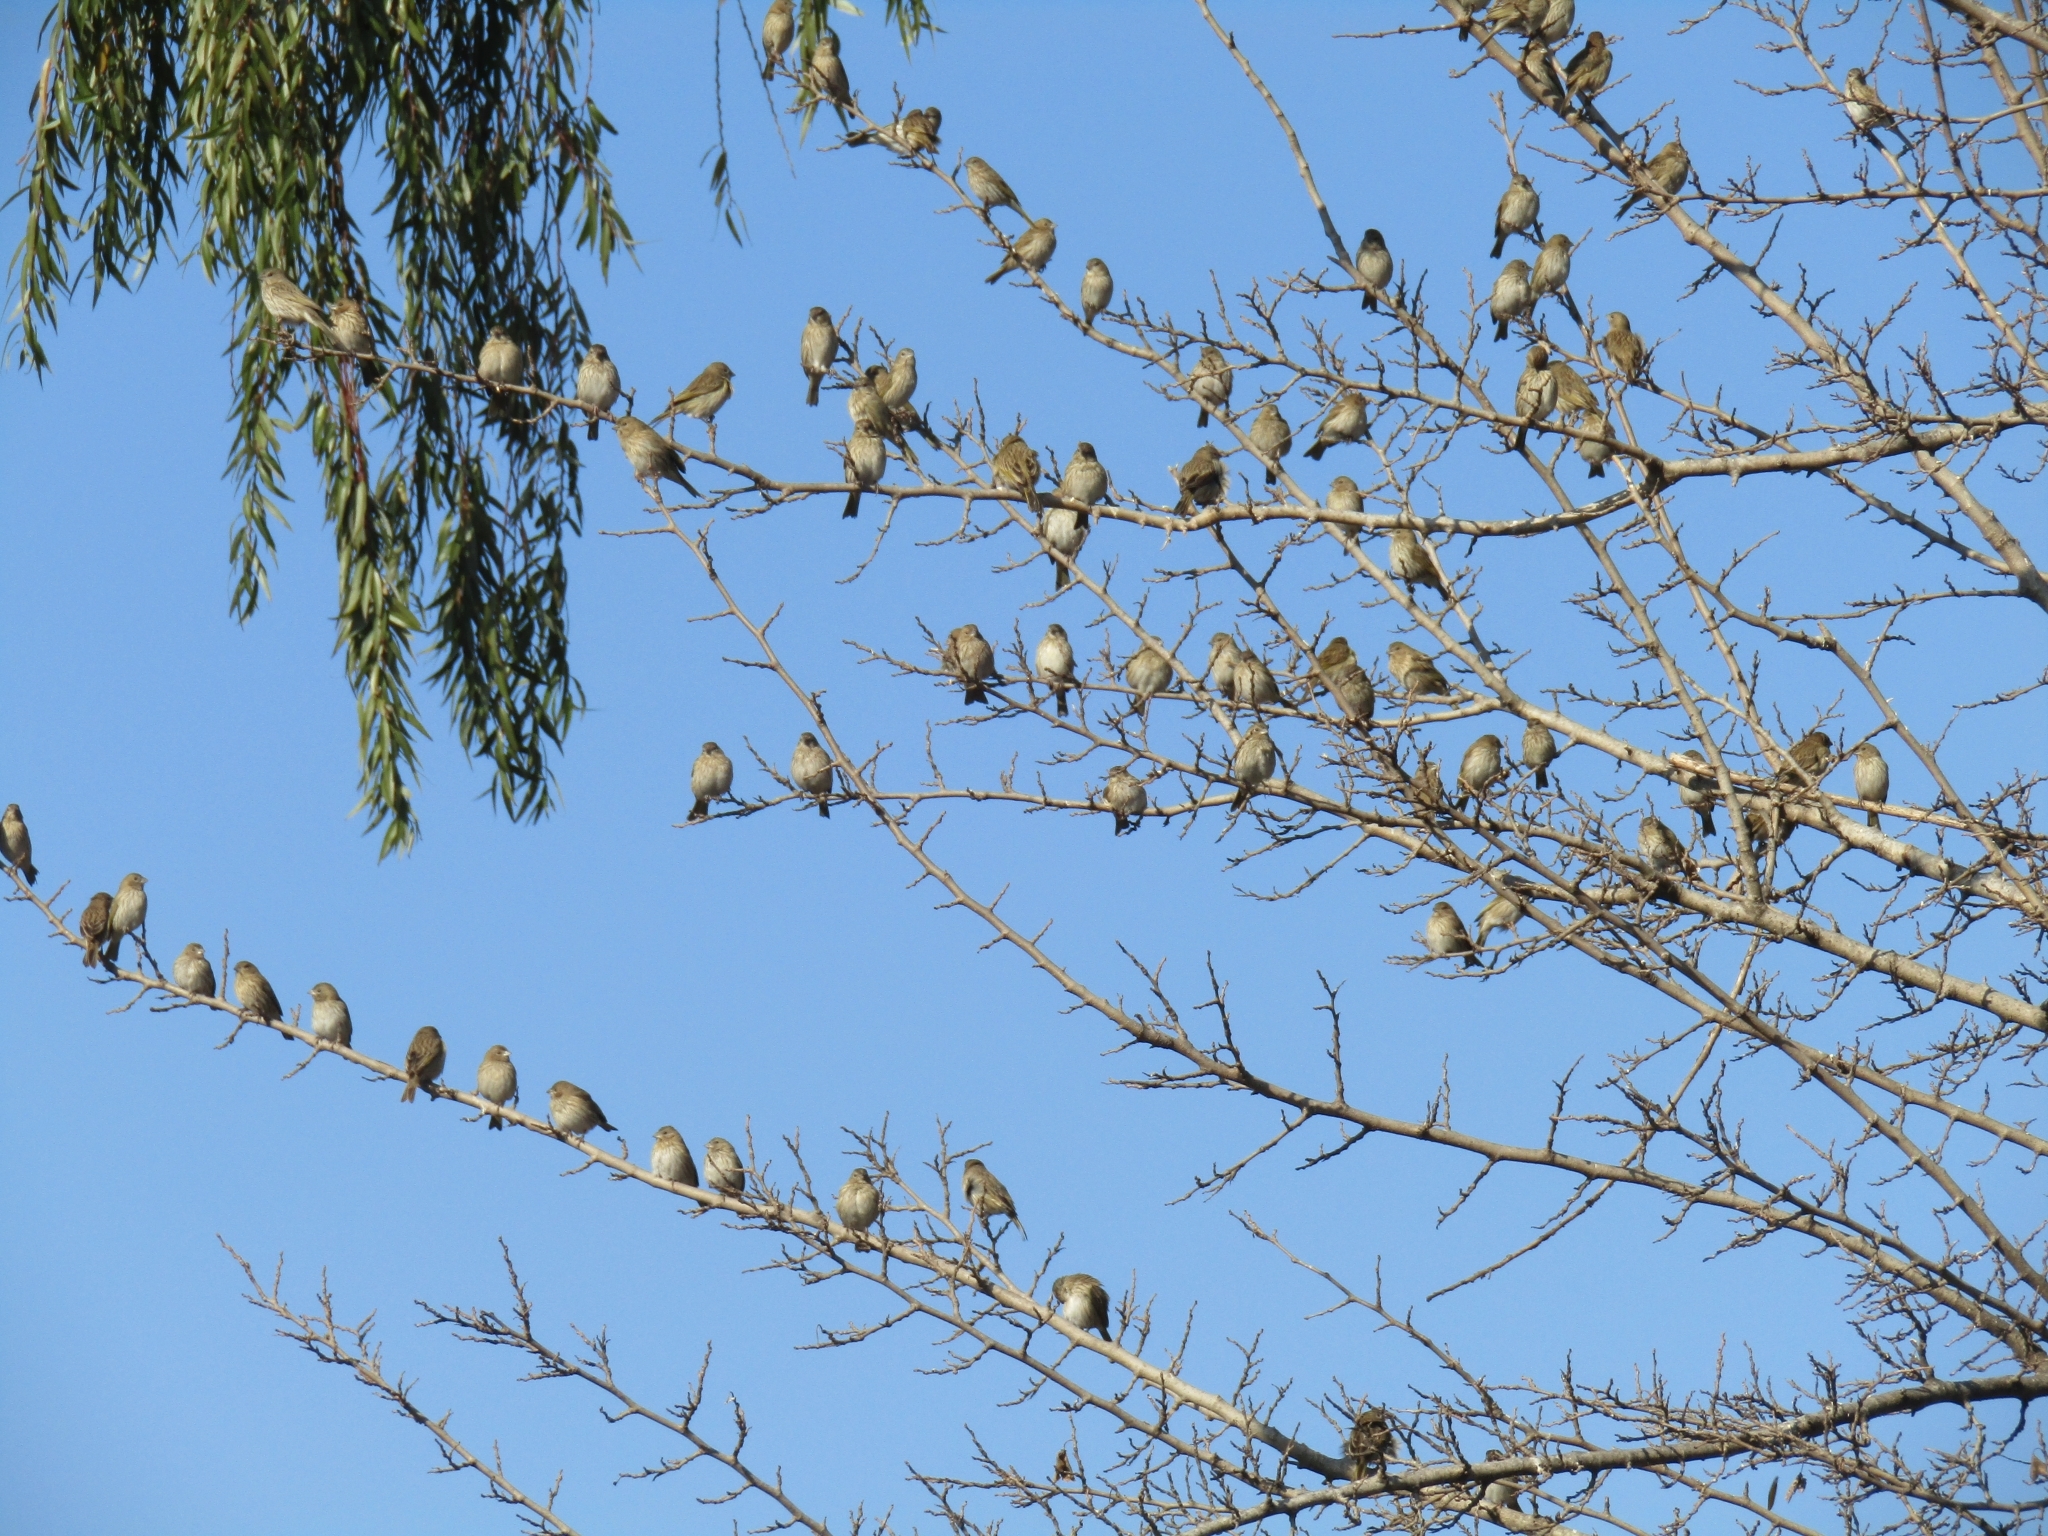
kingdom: Animalia
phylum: Chordata
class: Aves
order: Passeriformes
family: Thraupidae
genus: Sicalis
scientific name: Sicalis flaveola
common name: Saffron finch
